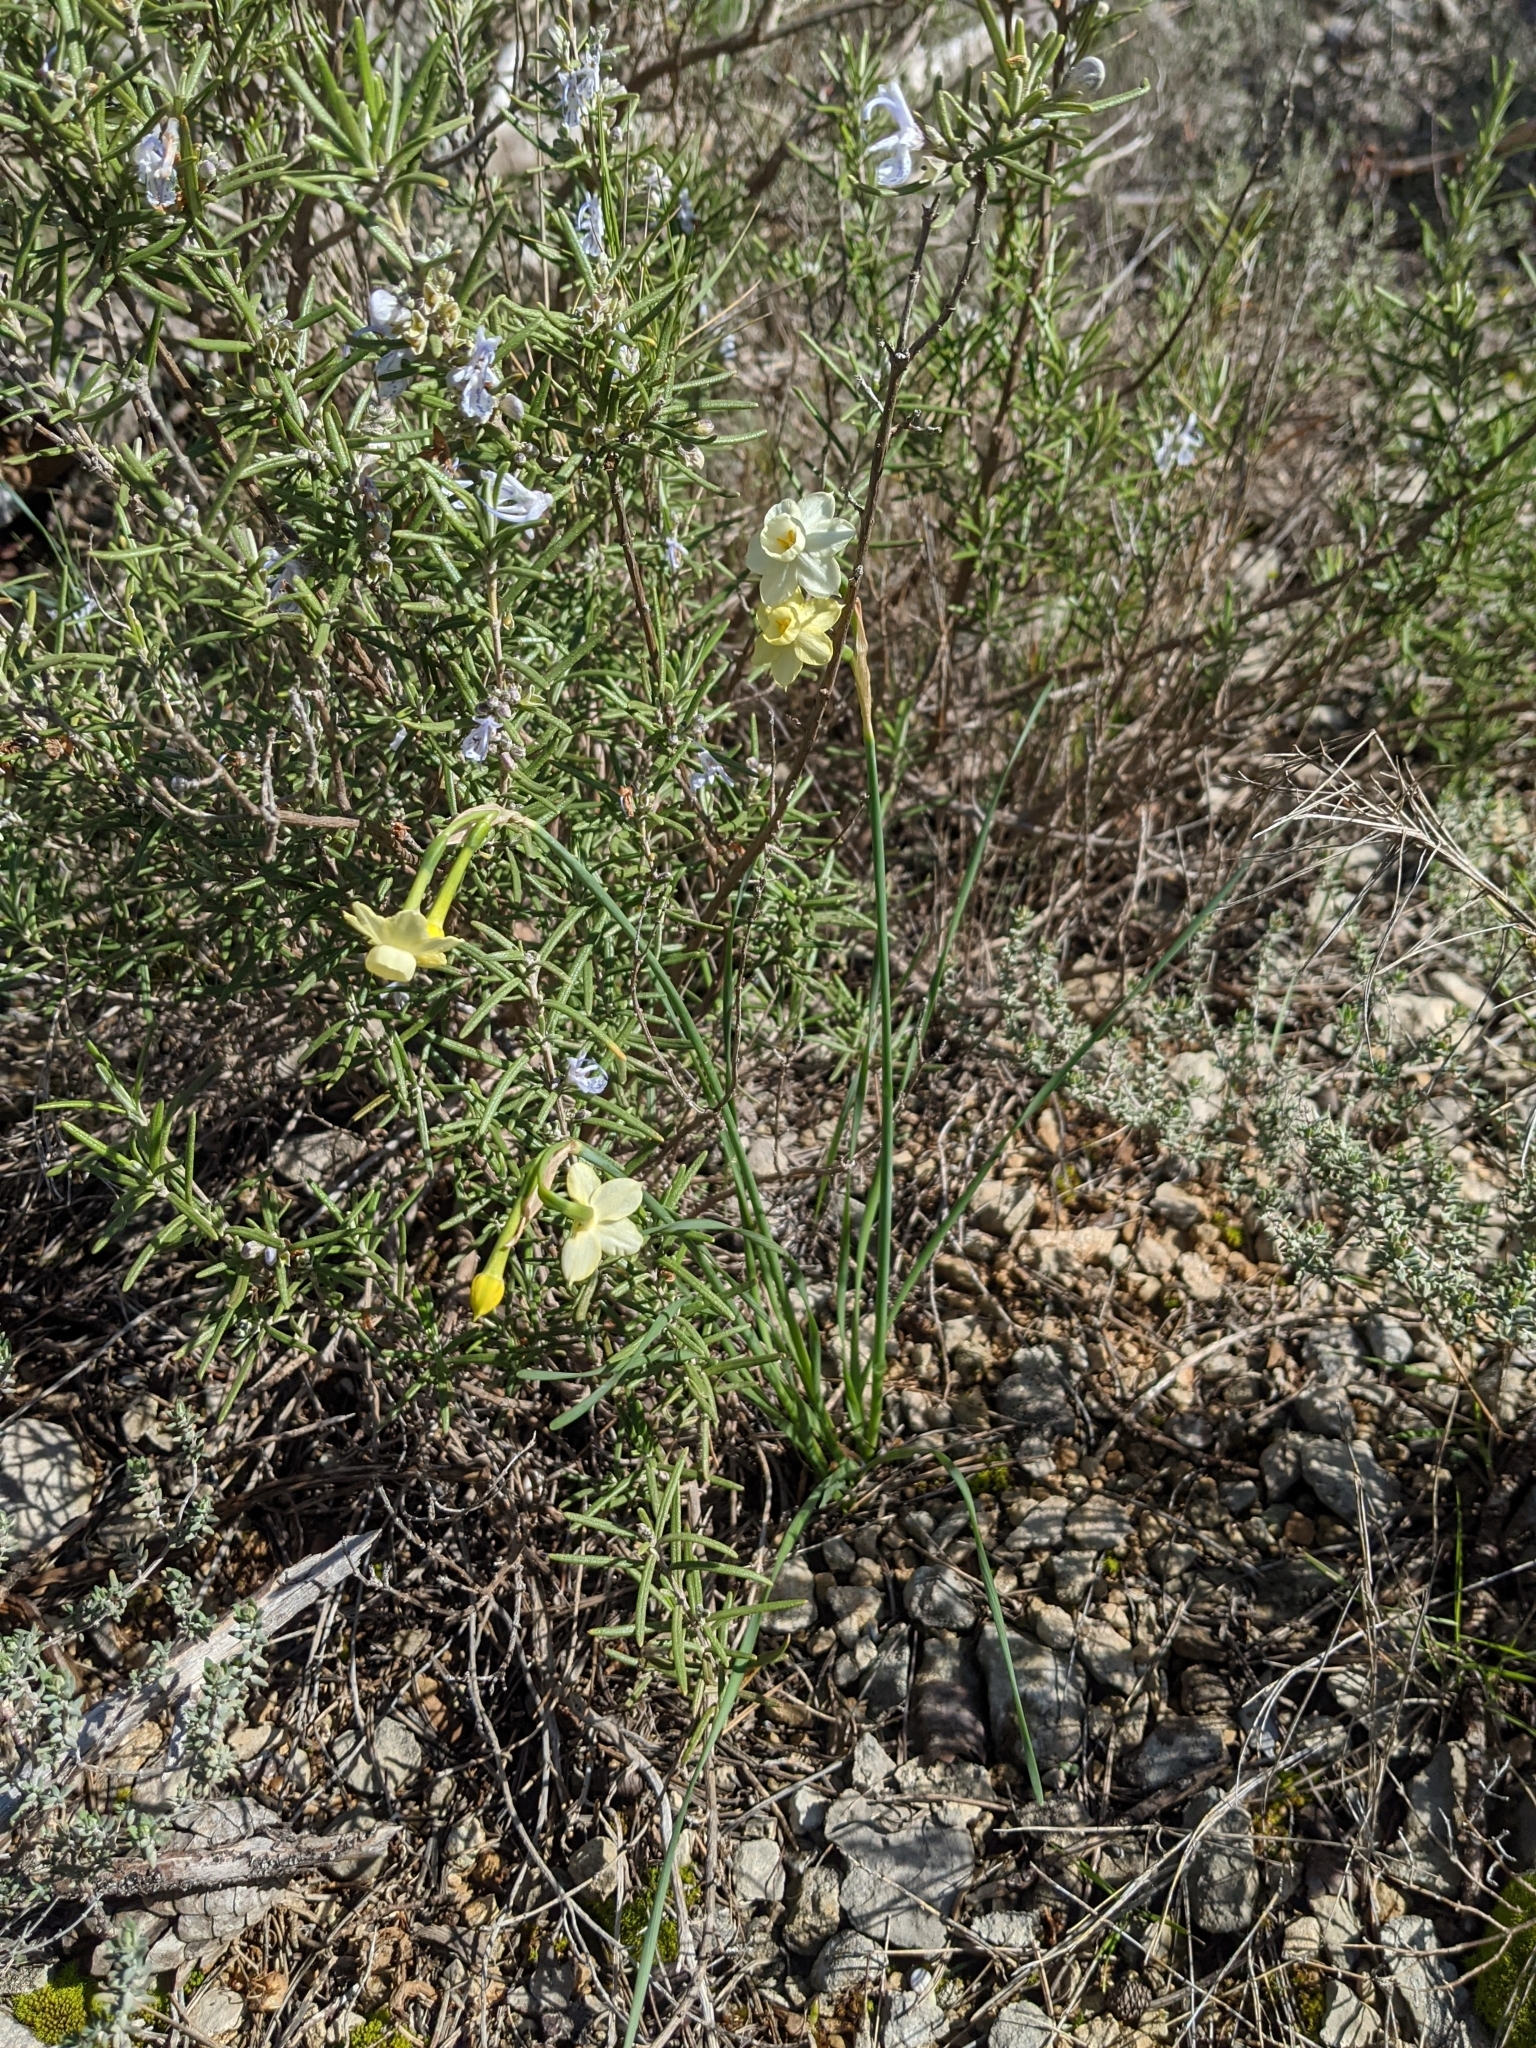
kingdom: Plantae
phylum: Tracheophyta
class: Liliopsida
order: Asparagales
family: Amaryllidaceae
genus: Narcissus
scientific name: Narcissus dubius
